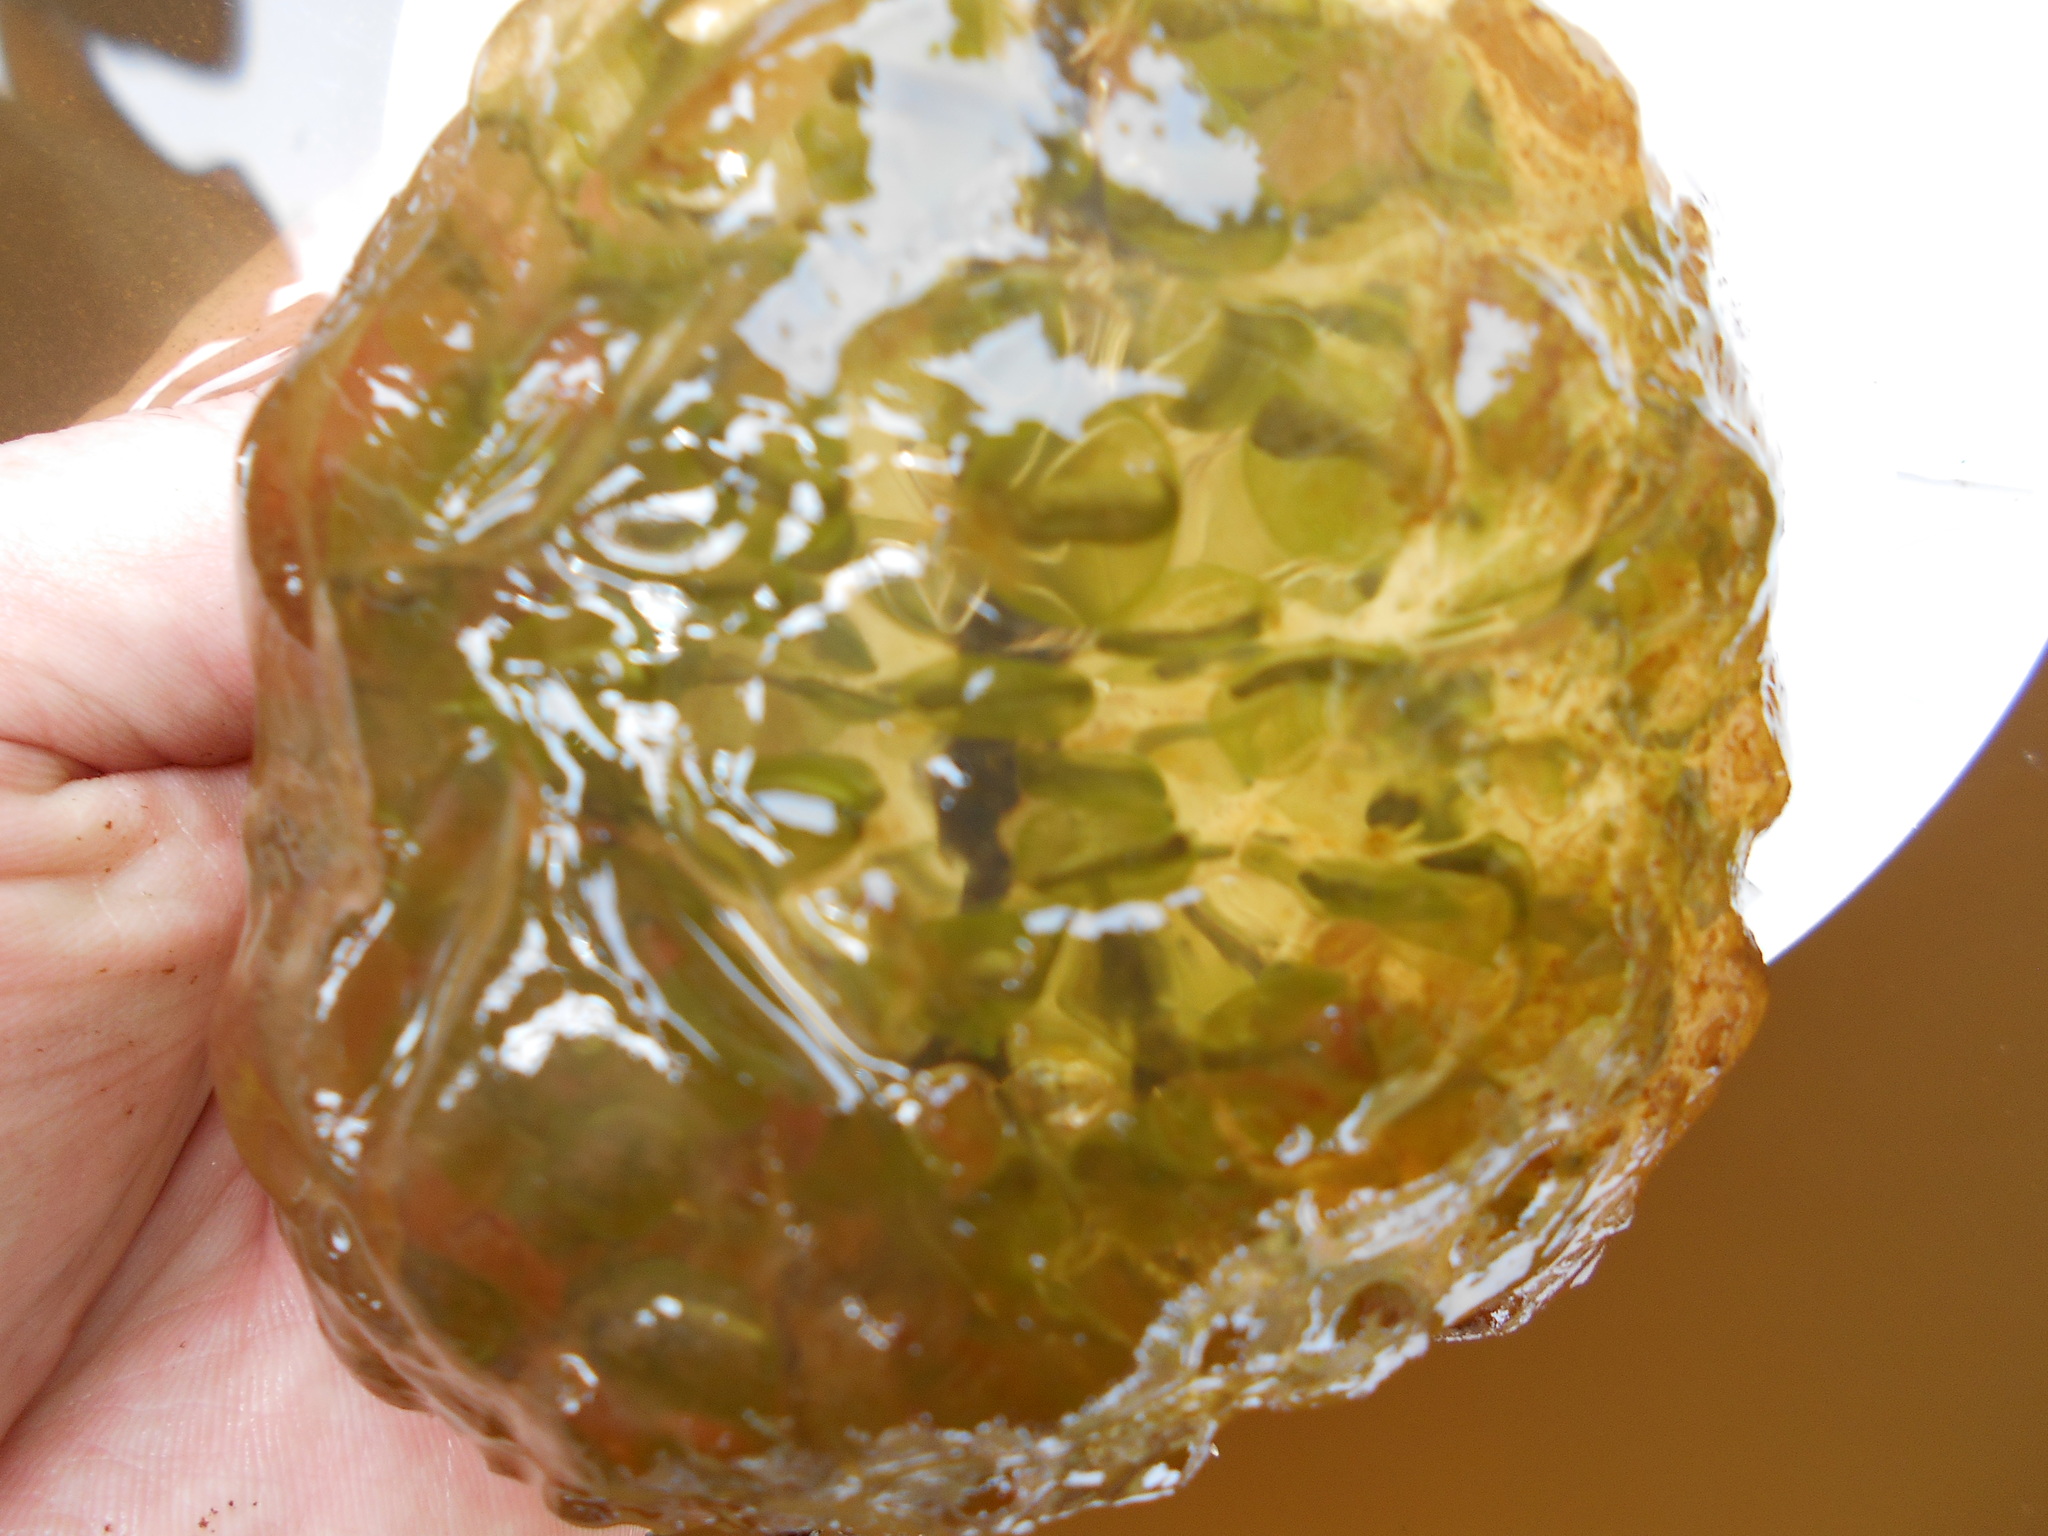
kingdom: Animalia
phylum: Chordata
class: Amphibia
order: Caudata
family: Ambystomatidae
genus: Ambystoma
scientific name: Ambystoma gracile
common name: Northwestern salamander
